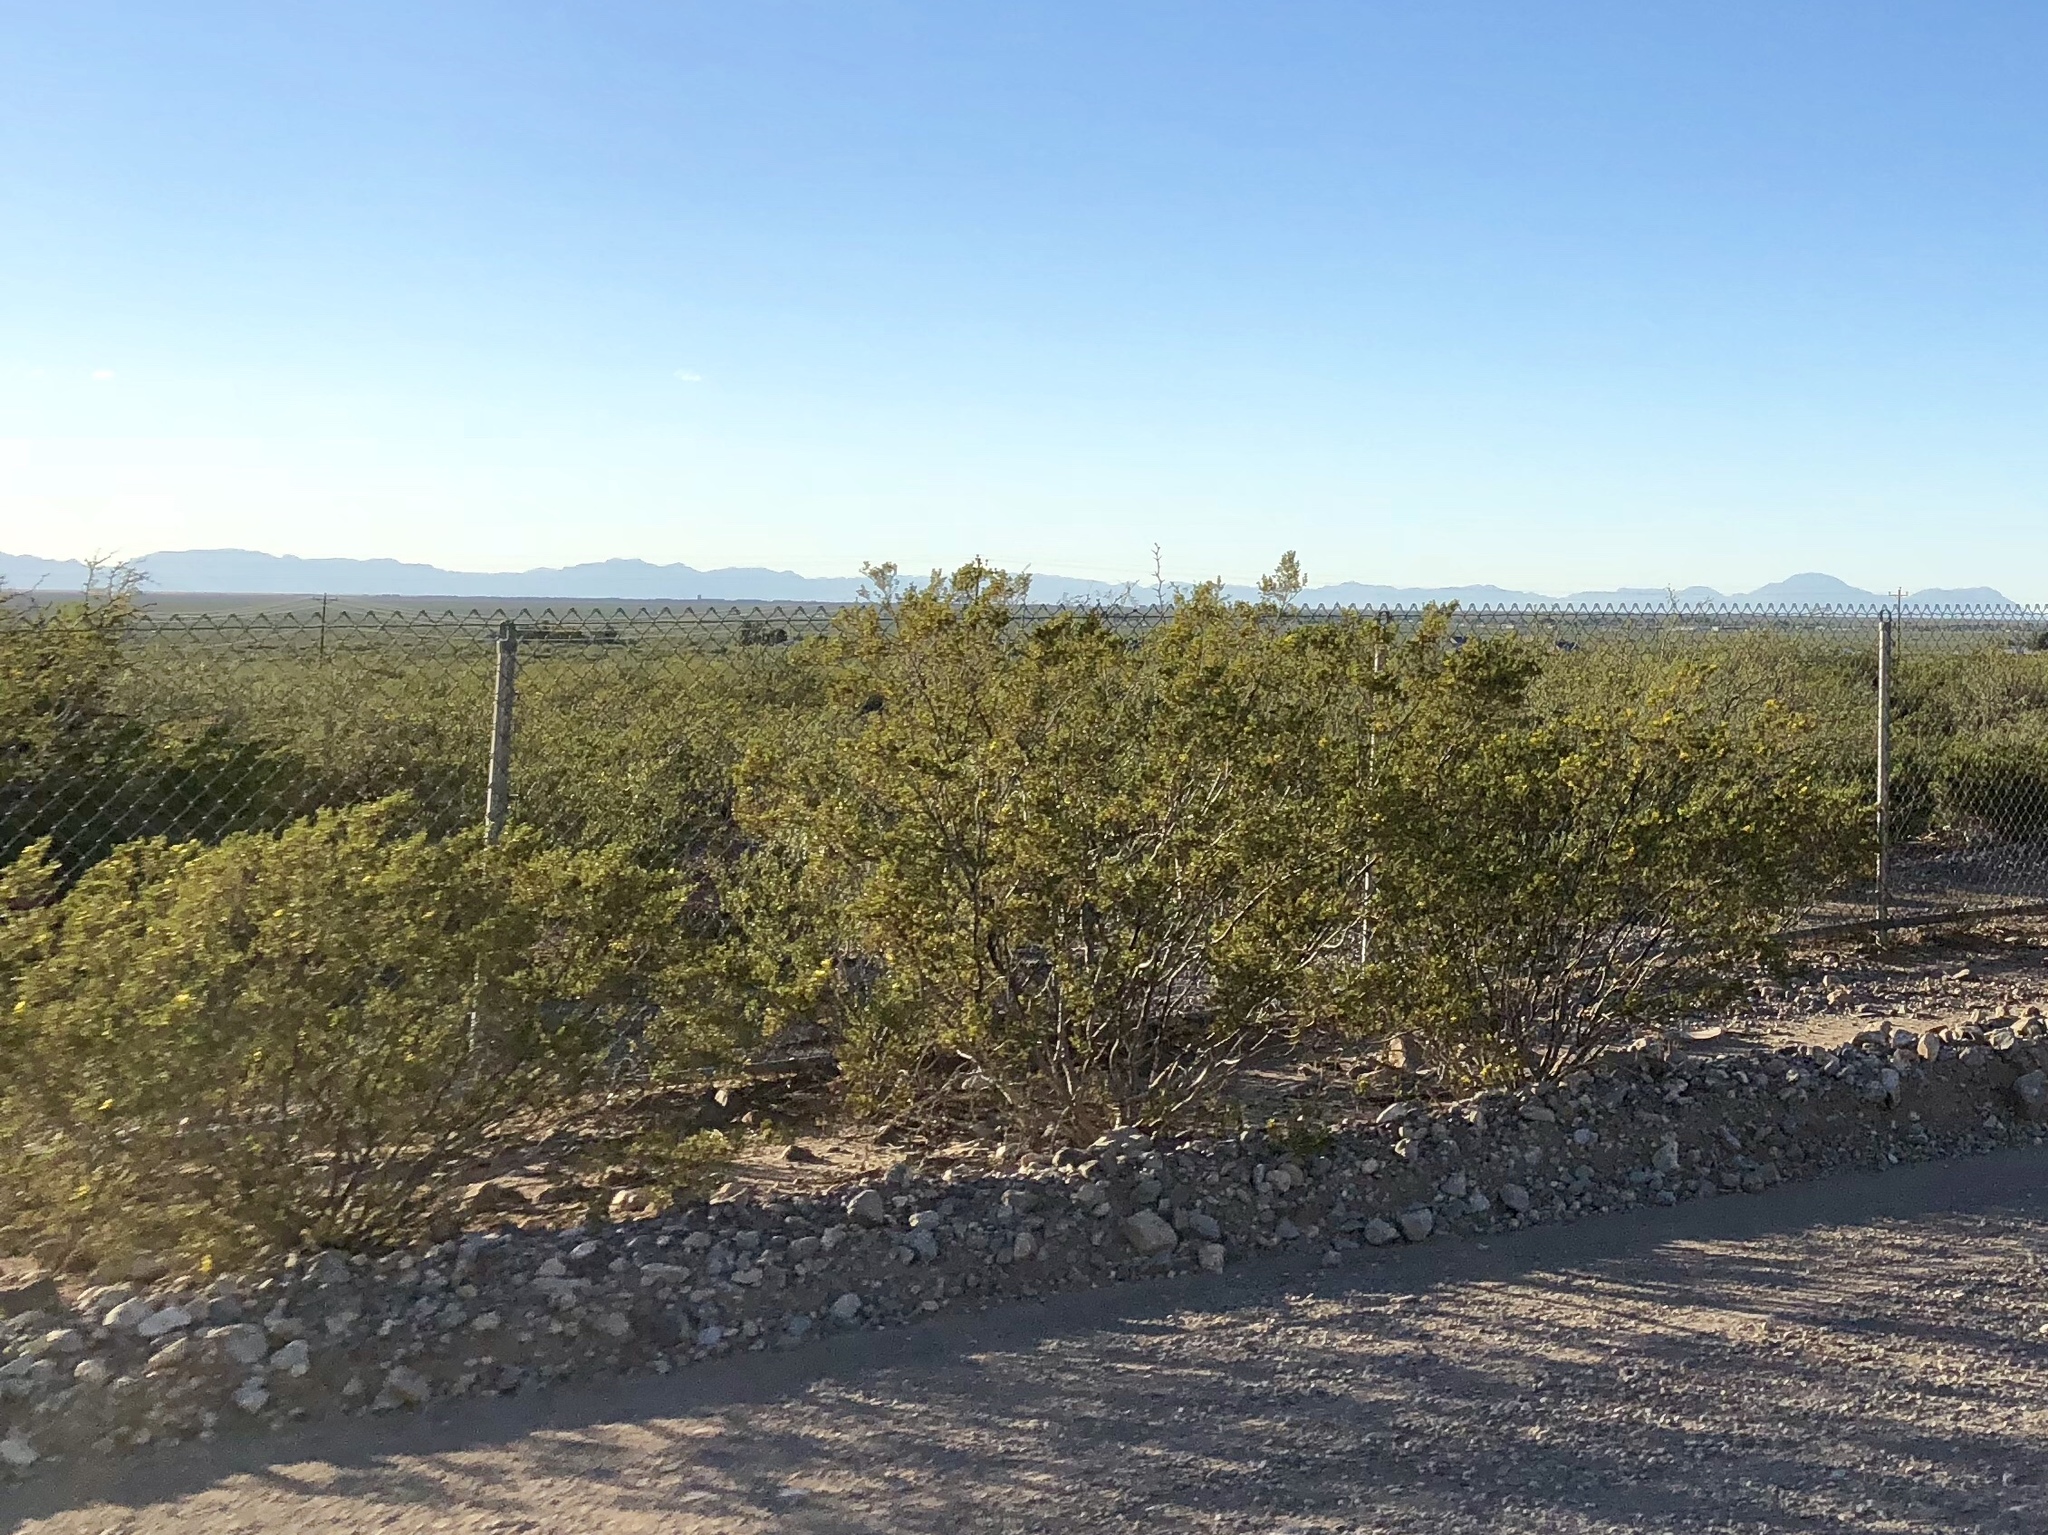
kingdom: Plantae
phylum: Tracheophyta
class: Magnoliopsida
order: Zygophyllales
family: Zygophyllaceae
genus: Larrea
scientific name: Larrea tridentata
